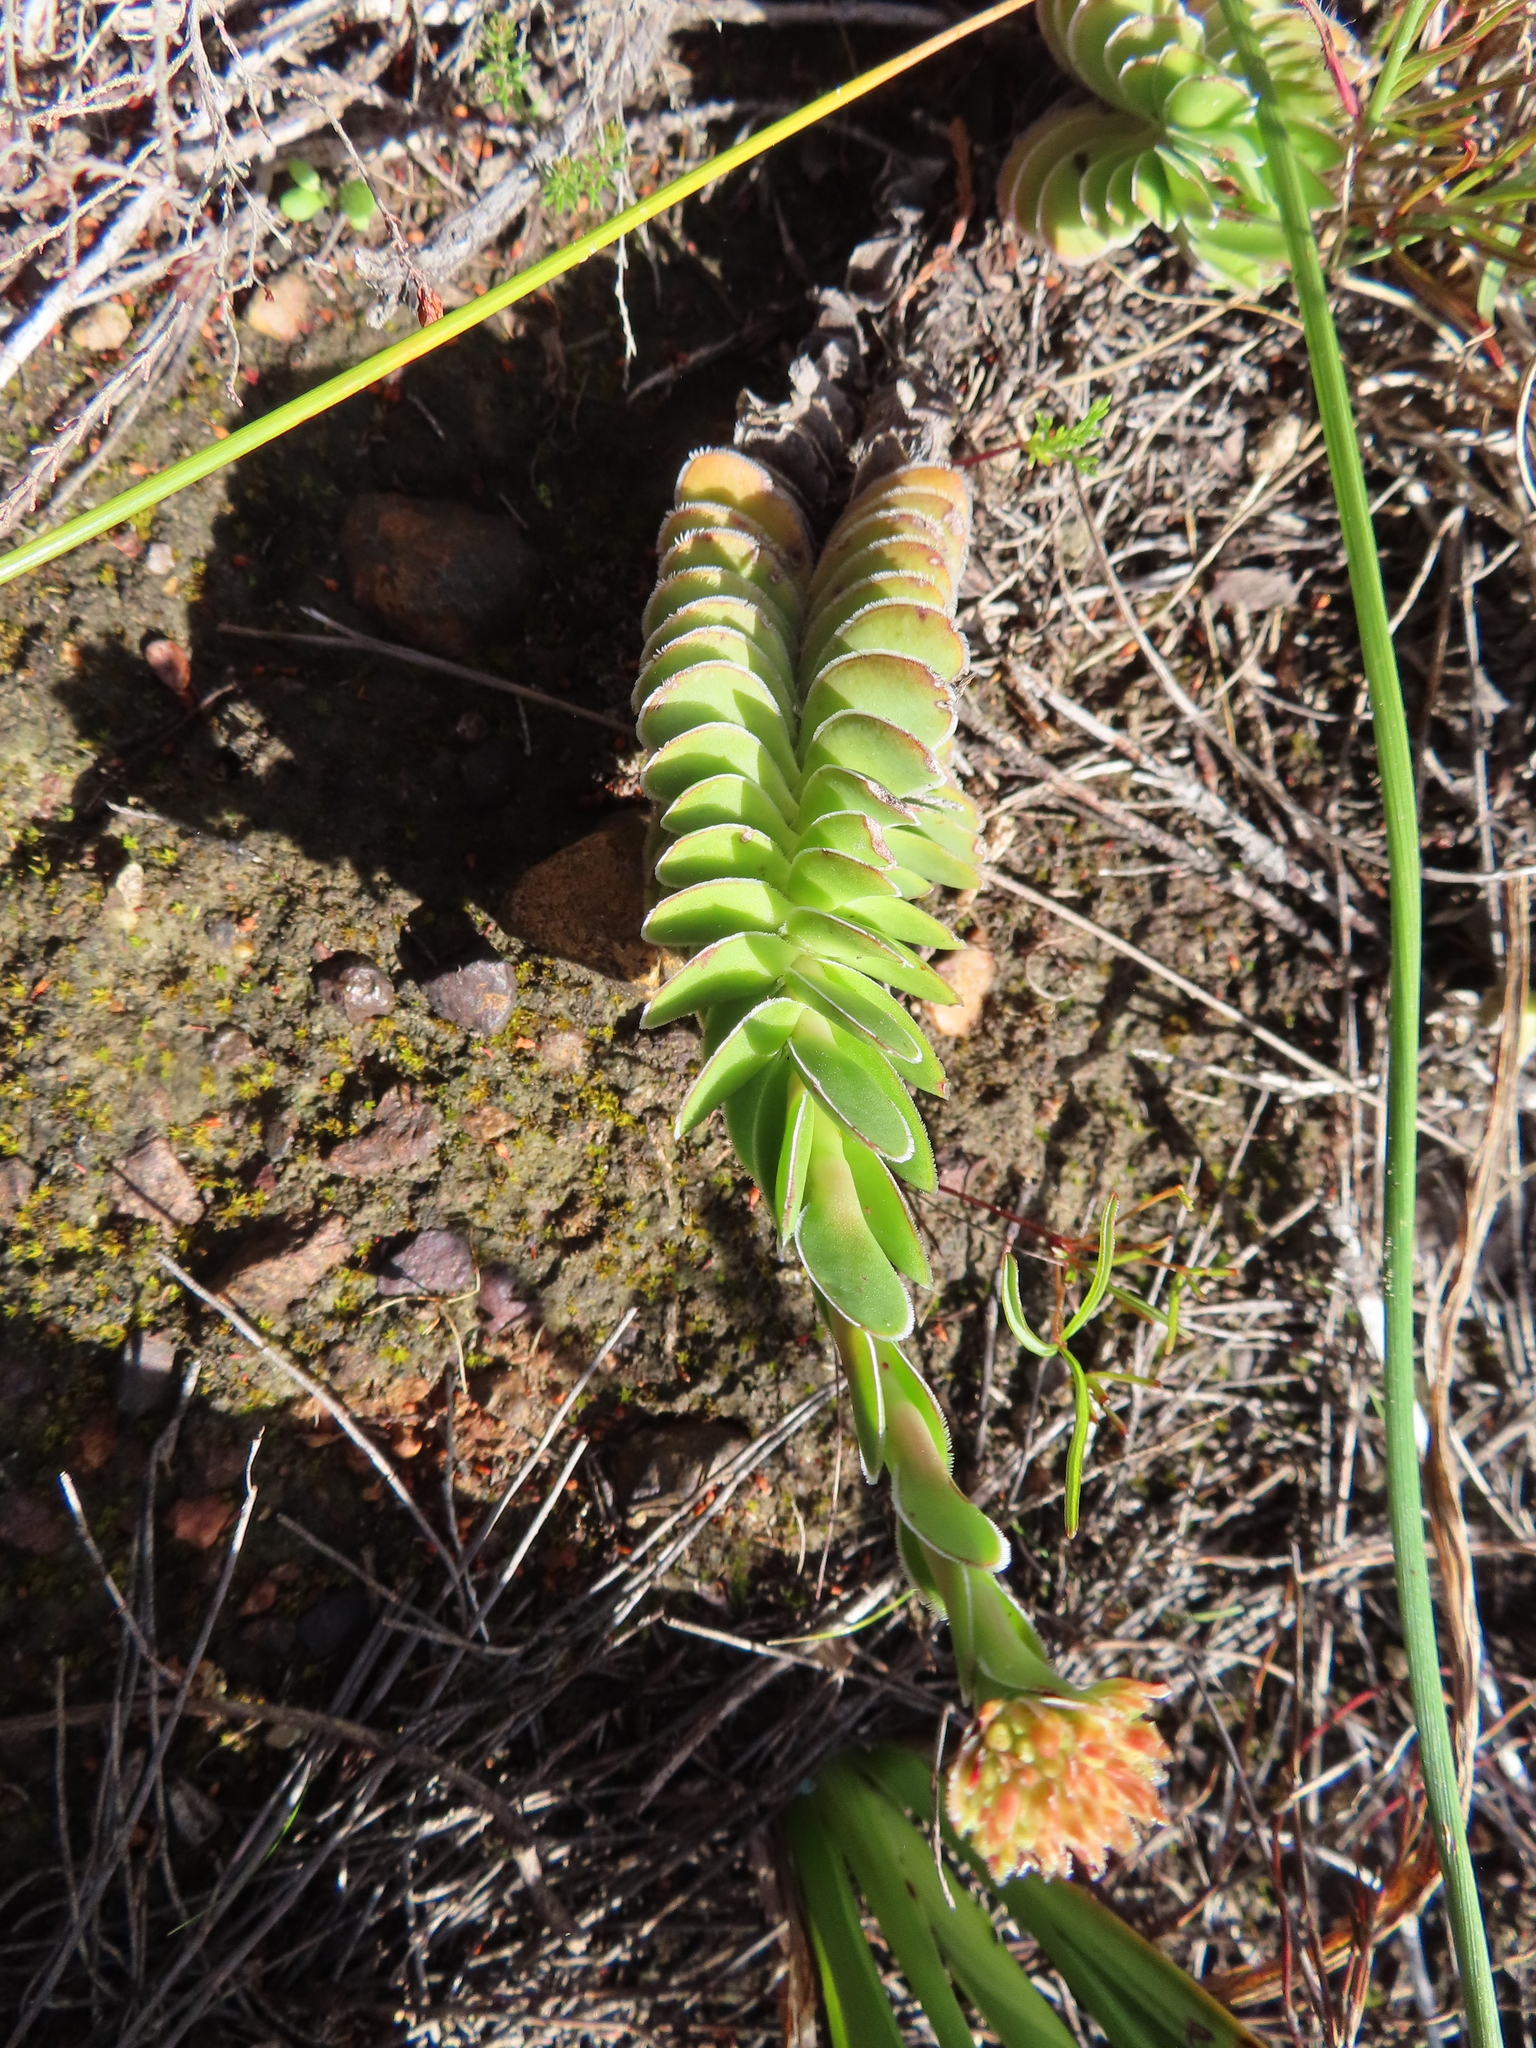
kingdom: Plantae
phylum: Tracheophyta
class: Magnoliopsida
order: Saxifragales
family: Crassulaceae
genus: Crassula
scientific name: Crassula ciliata
